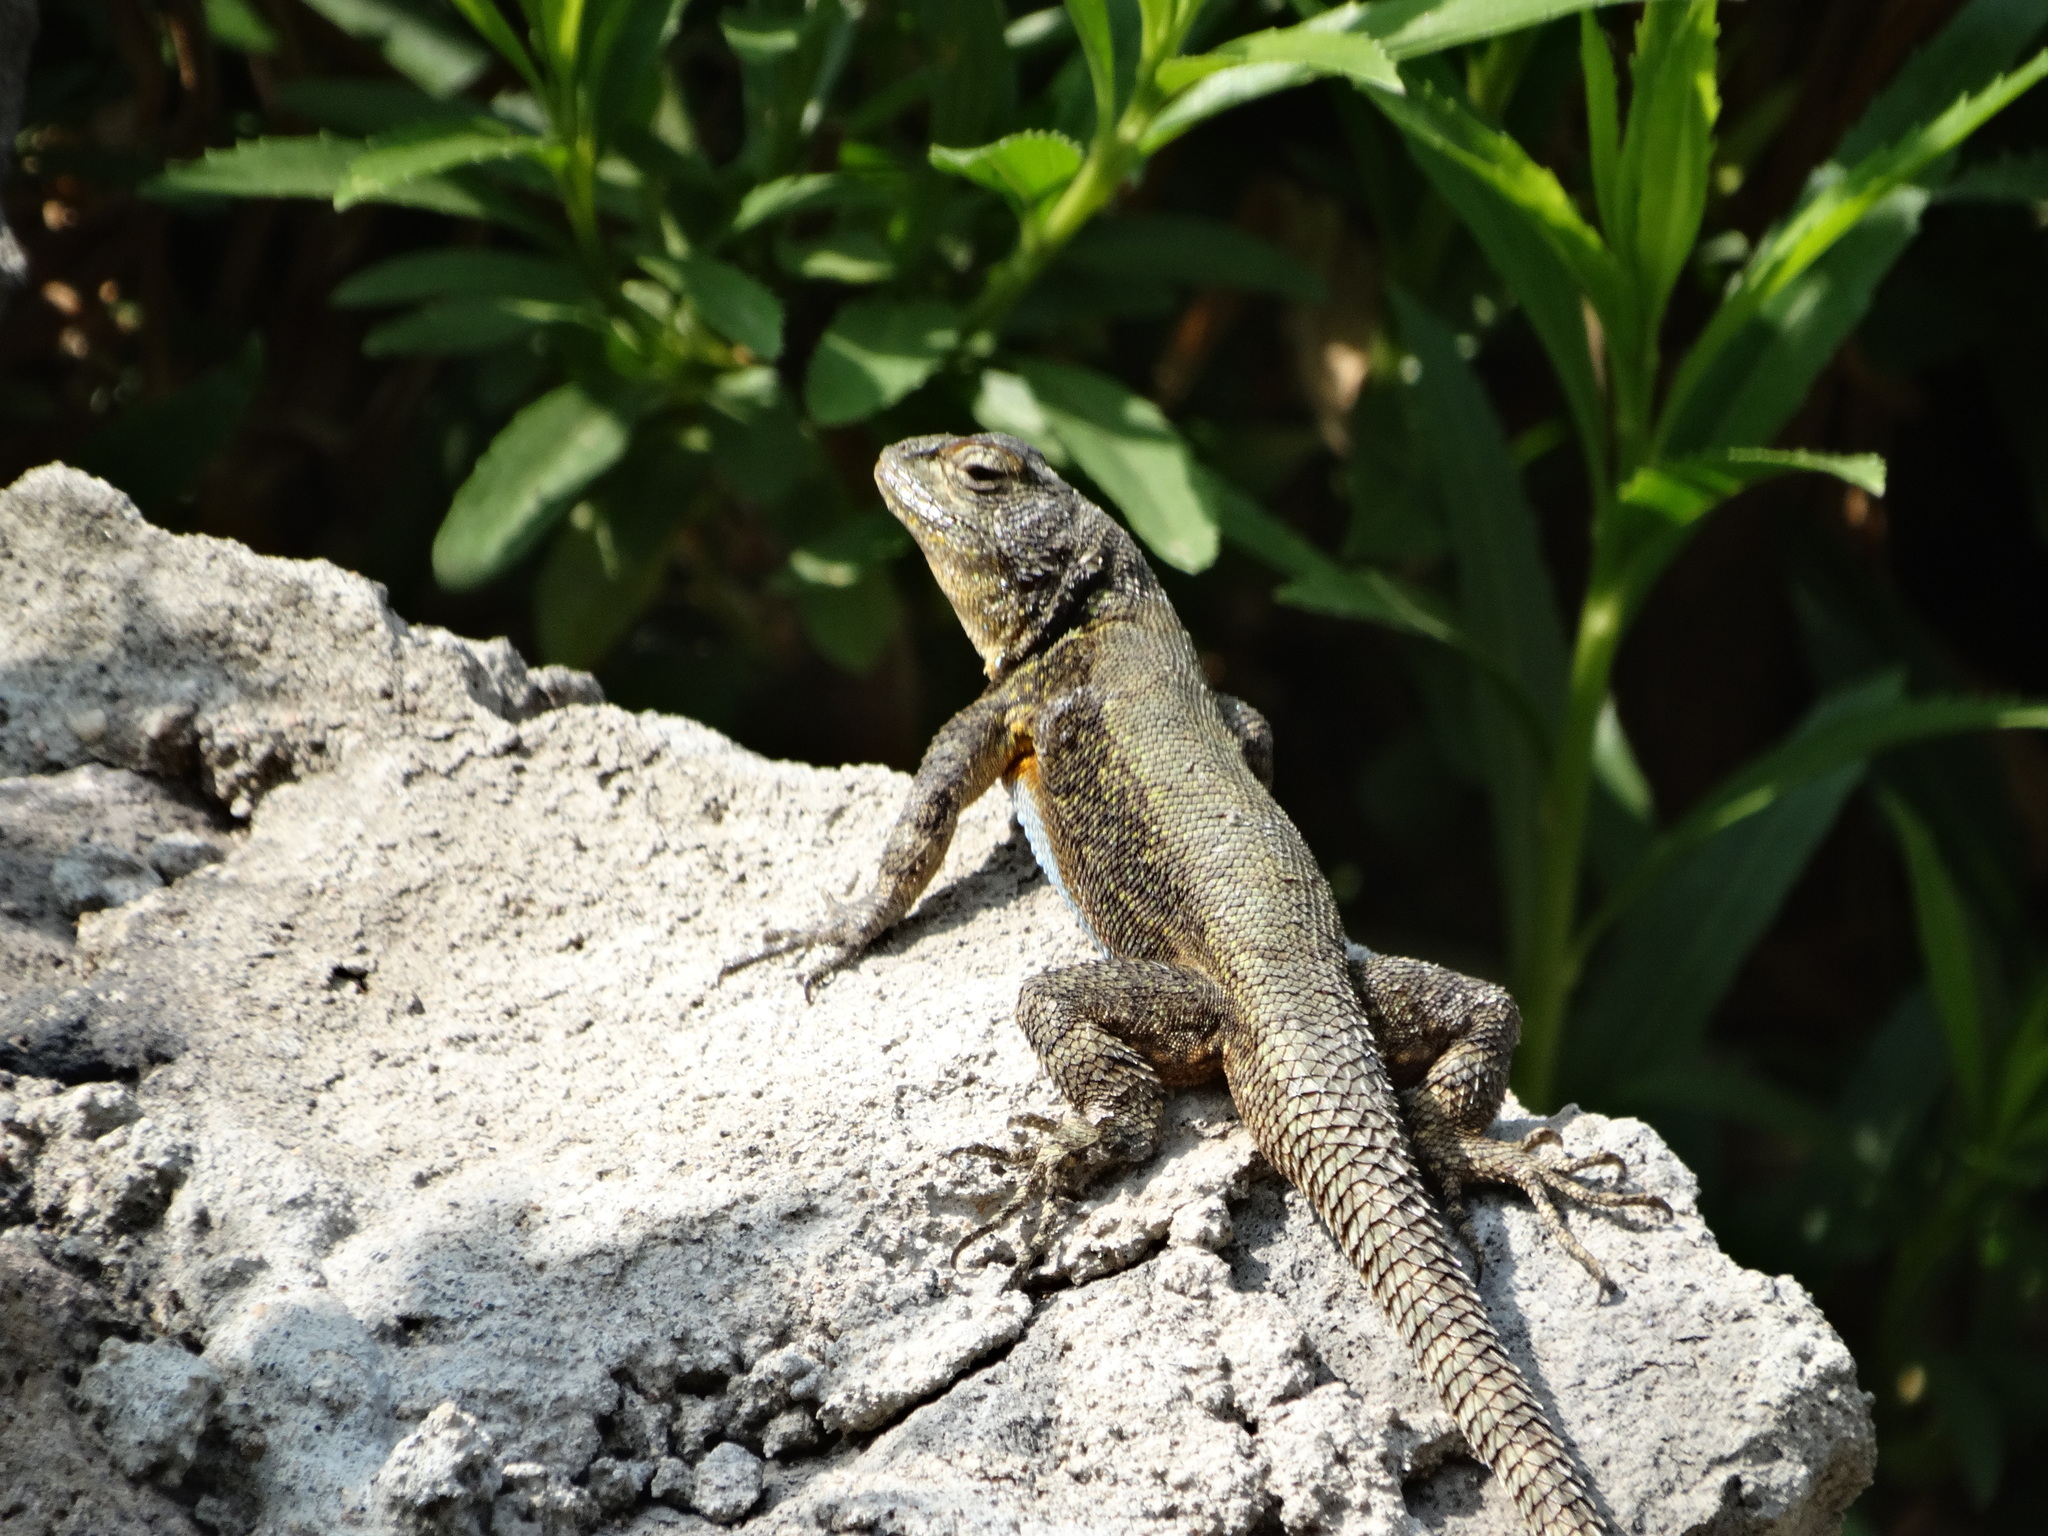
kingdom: Animalia
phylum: Chordata
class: Squamata
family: Phrynosomatidae
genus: Sceloporus
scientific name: Sceloporus grammicus
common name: Mesquite lizard
